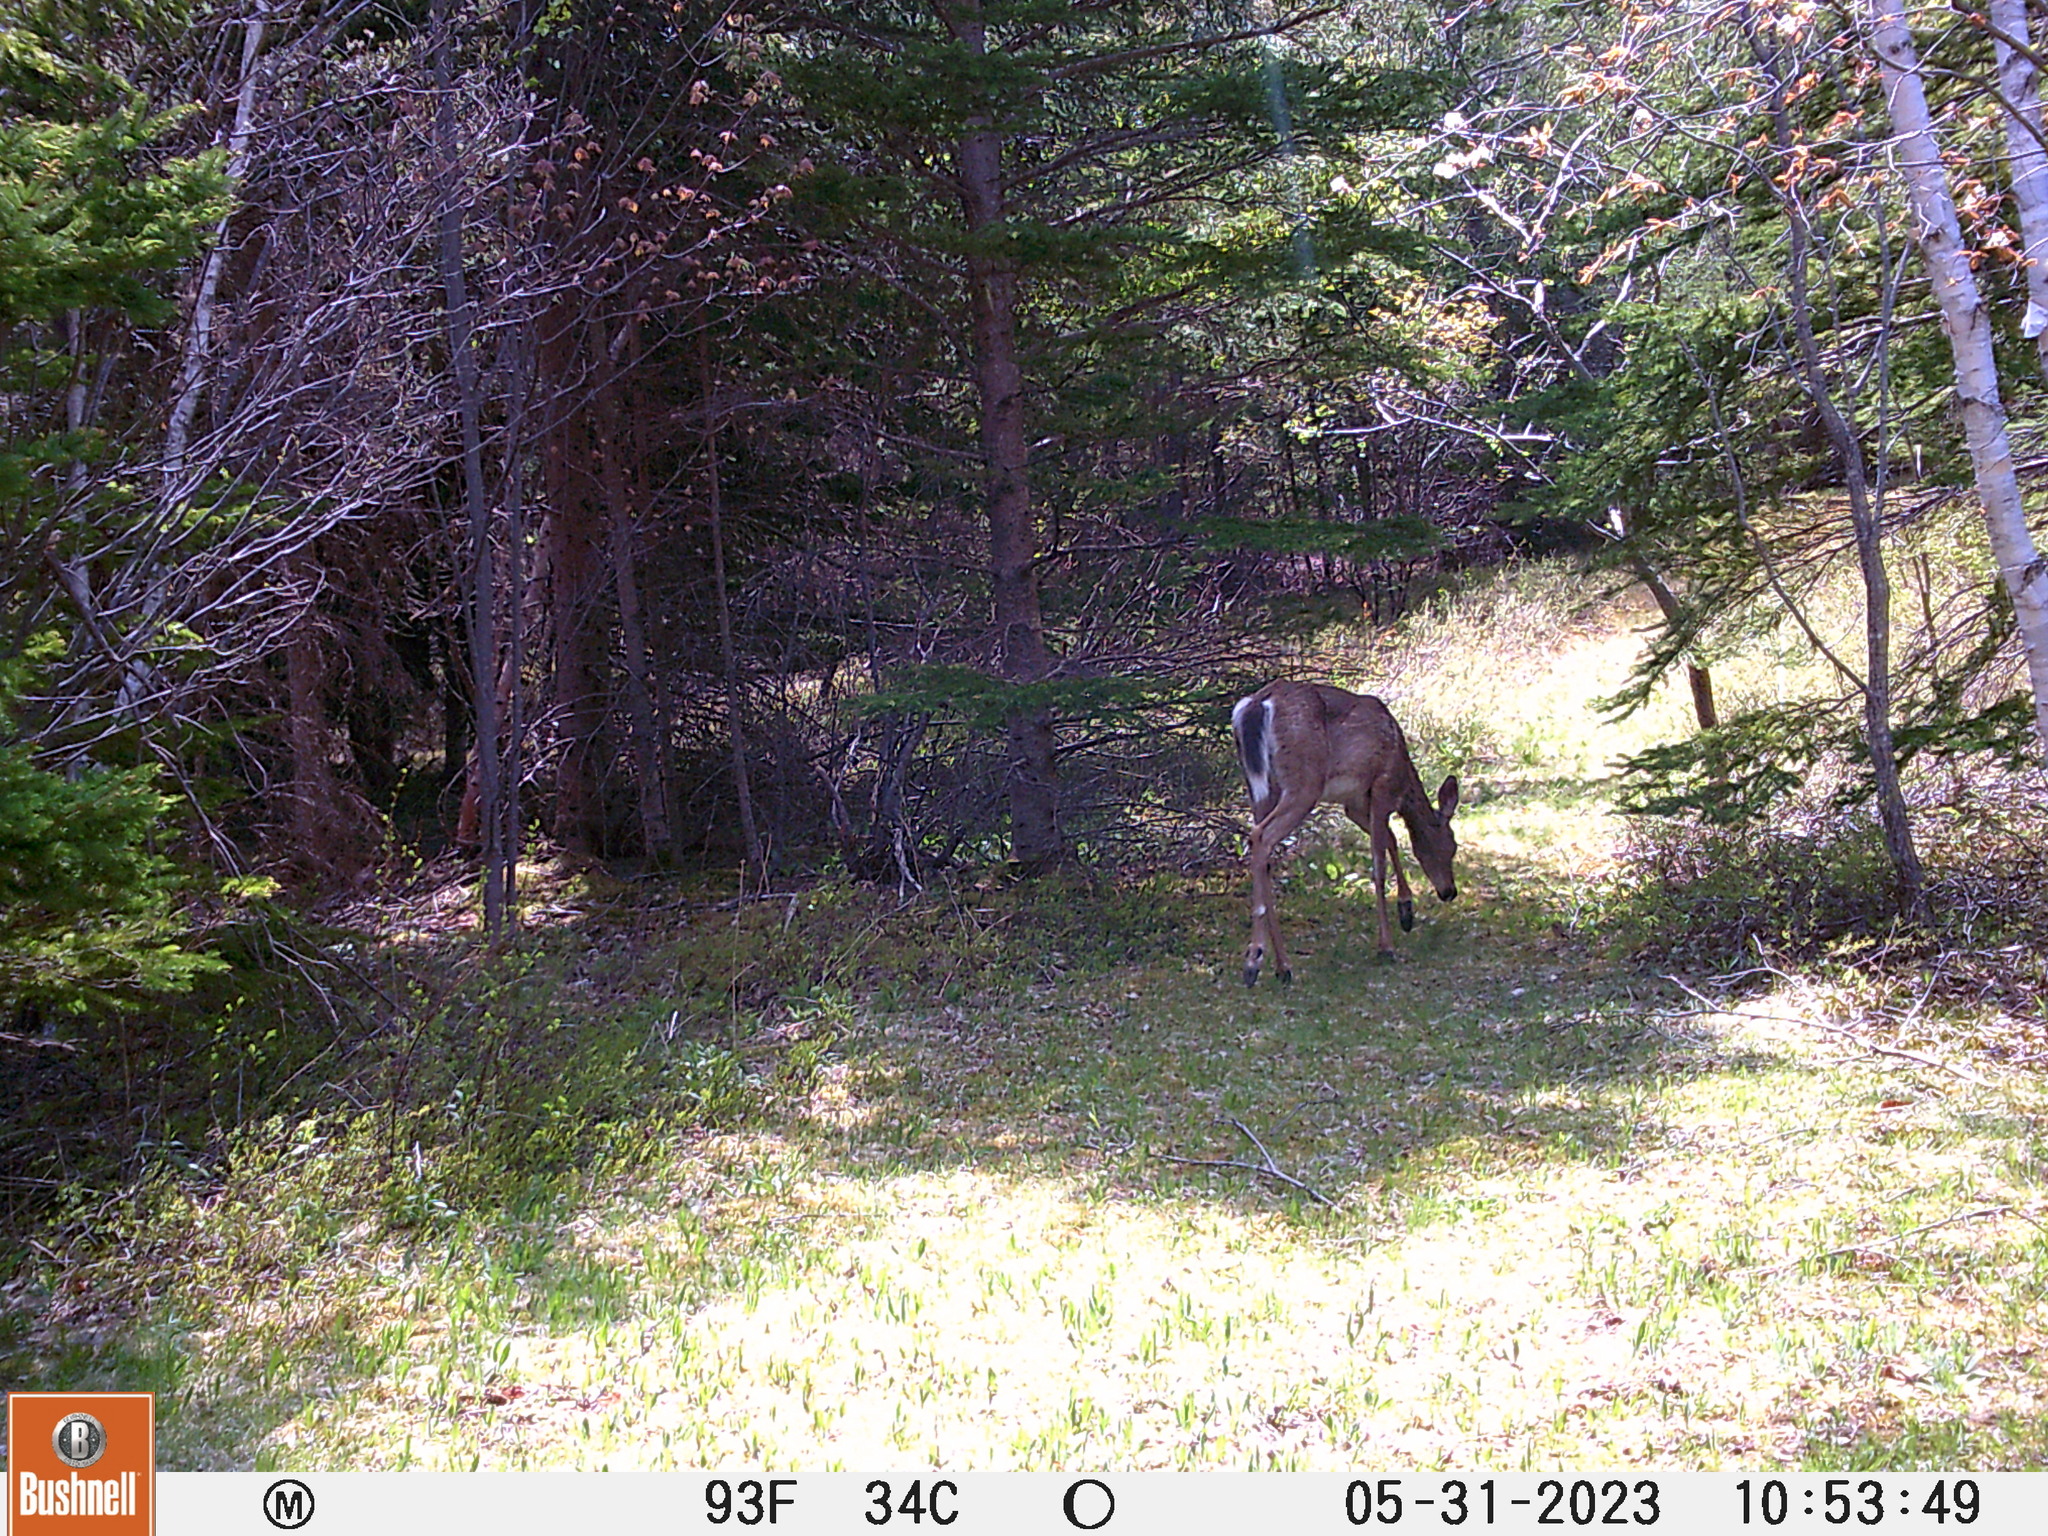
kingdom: Animalia
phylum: Chordata
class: Mammalia
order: Artiodactyla
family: Cervidae
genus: Odocoileus
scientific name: Odocoileus virginianus
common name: White-tailed deer
